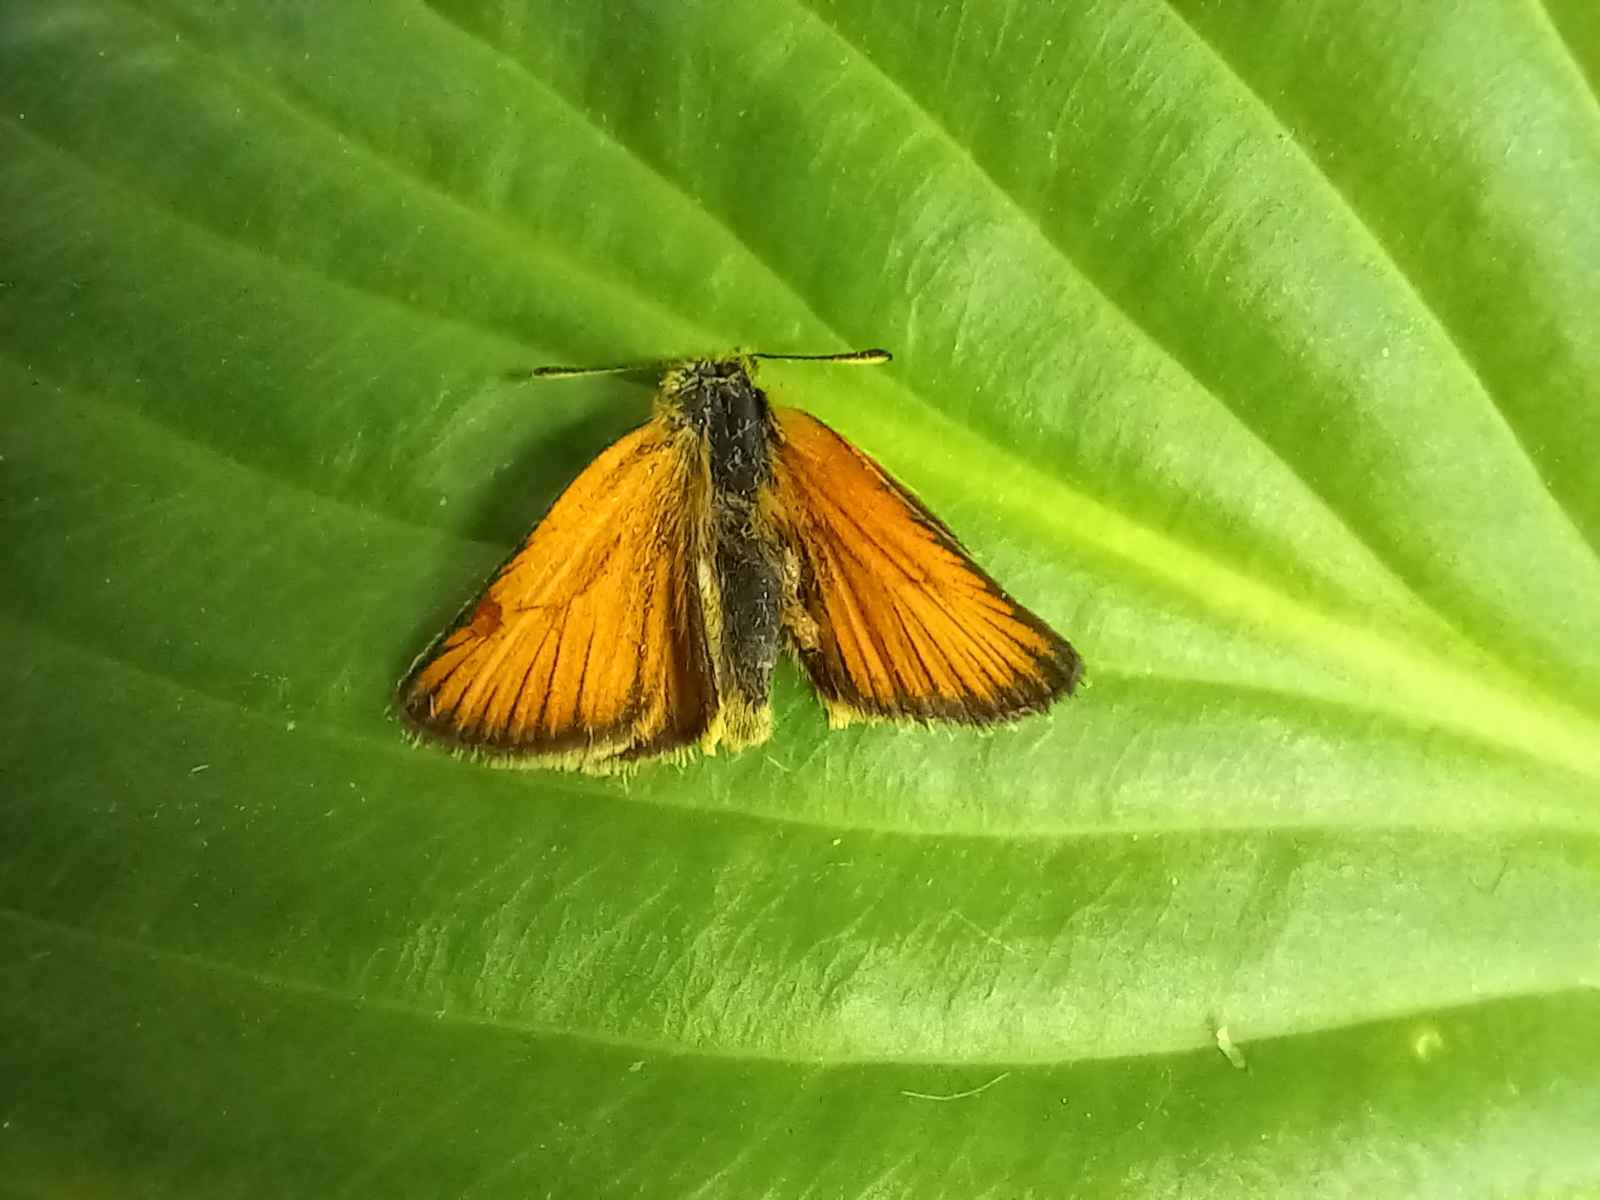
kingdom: Animalia
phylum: Arthropoda
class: Insecta
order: Lepidoptera
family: Hesperiidae
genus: Thymelicus
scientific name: Thymelicus lineola
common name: Essex skipper
